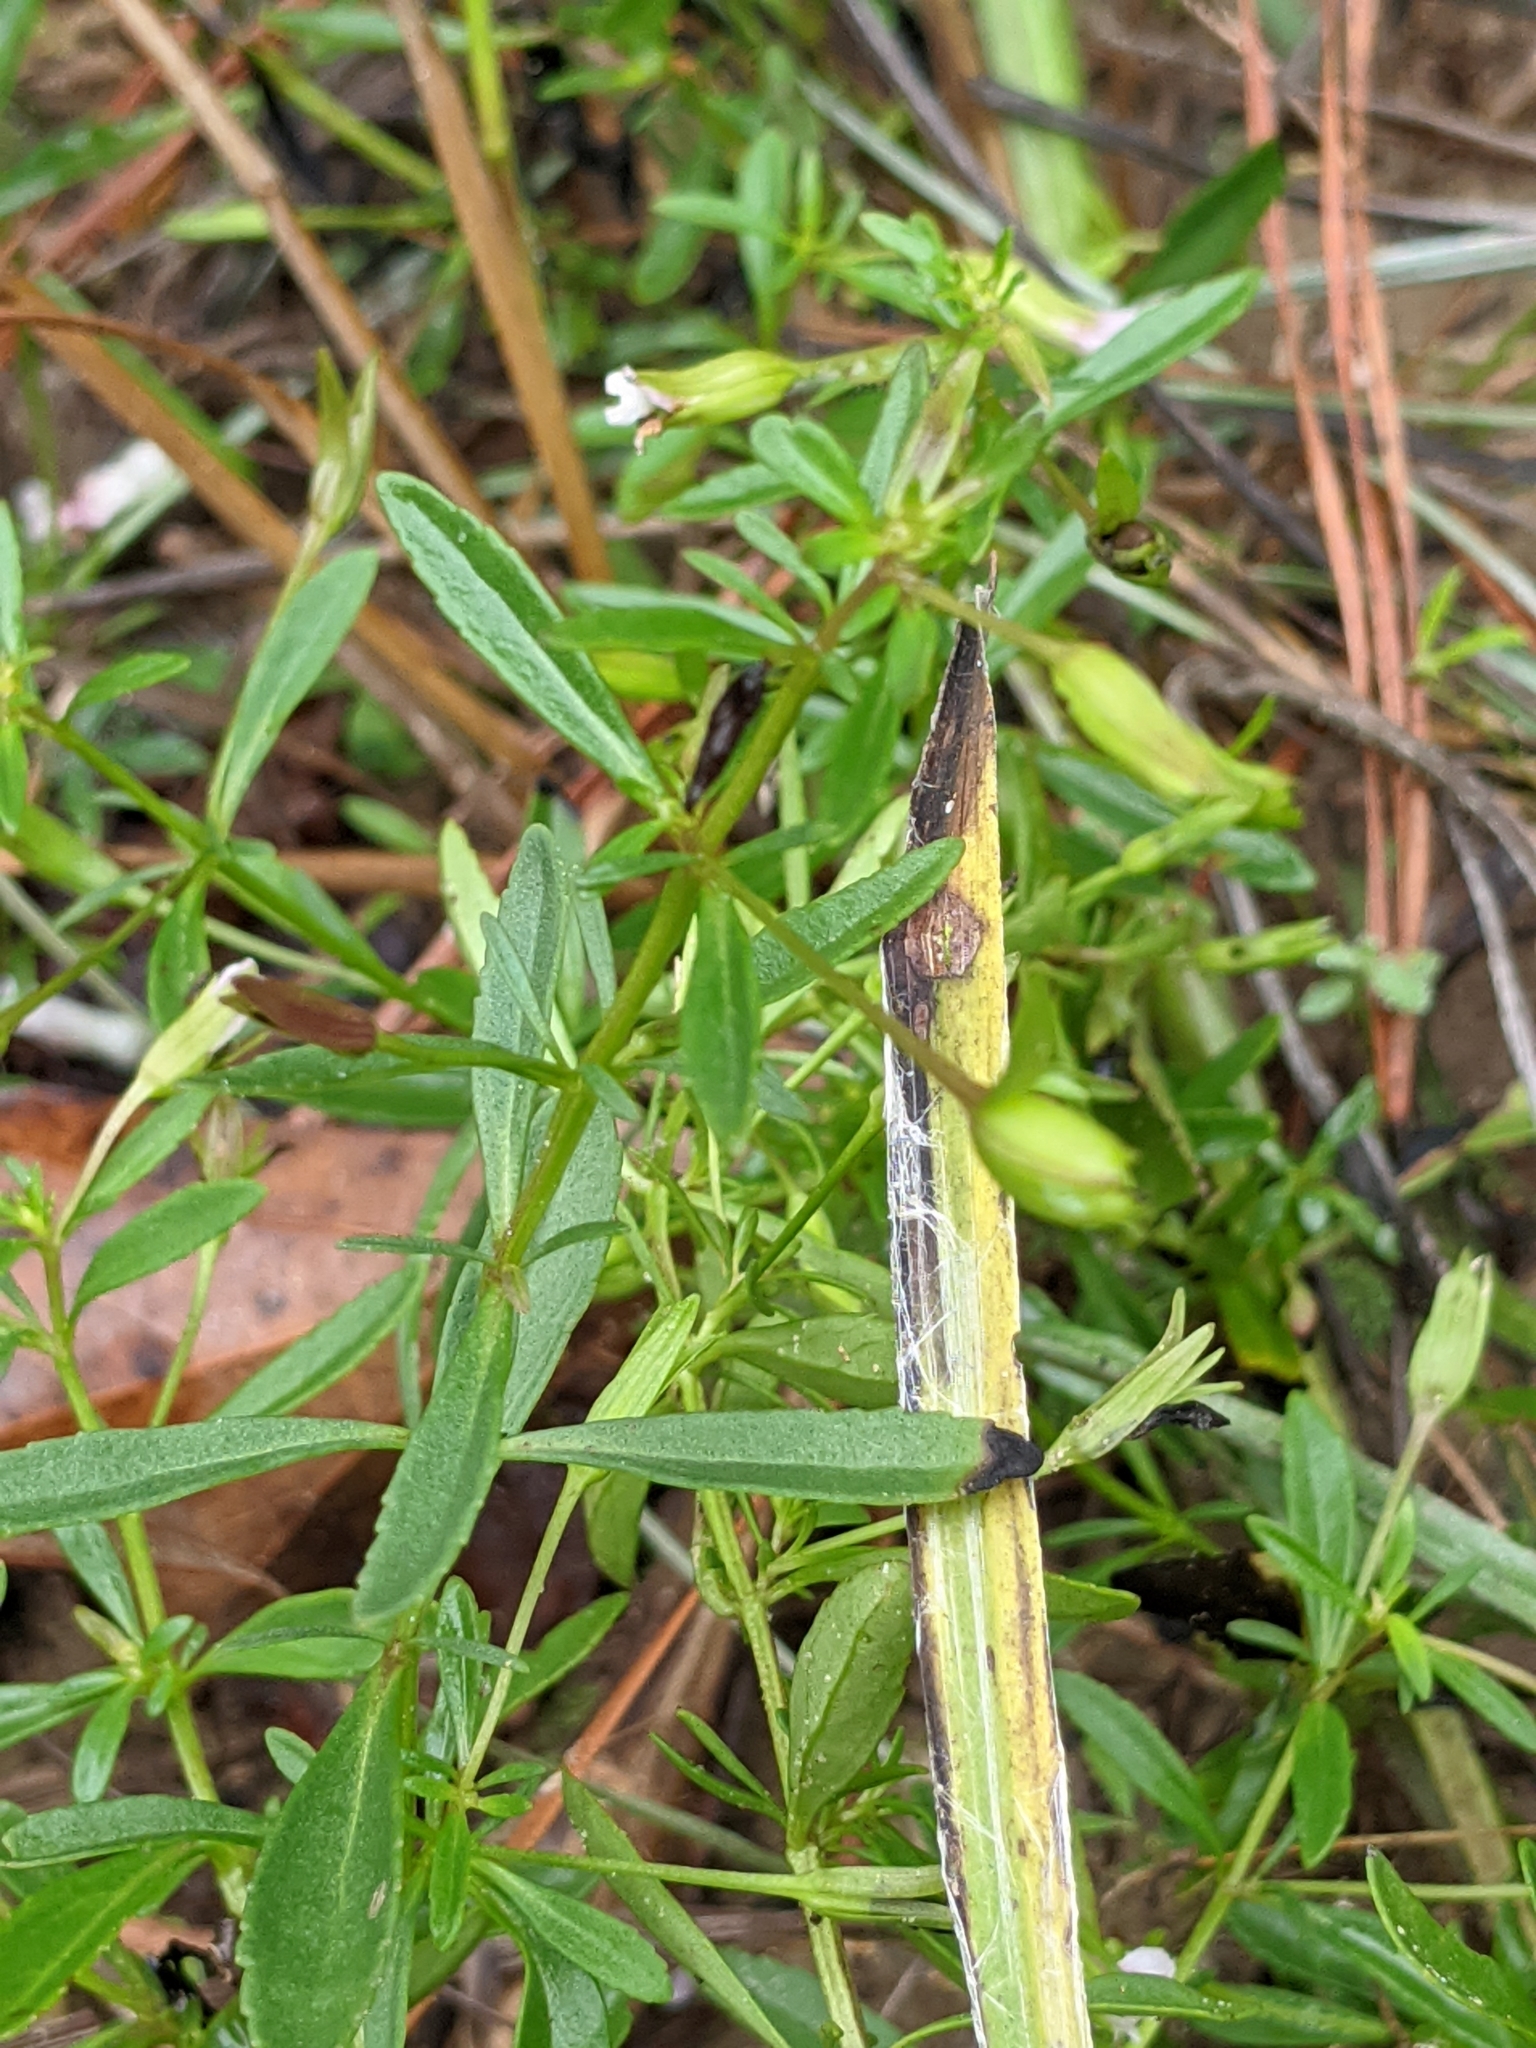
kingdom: Plantae
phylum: Tracheophyta
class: Magnoliopsida
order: Lamiales
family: Plantaginaceae
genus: Mecardonia
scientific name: Mecardonia acuminata
